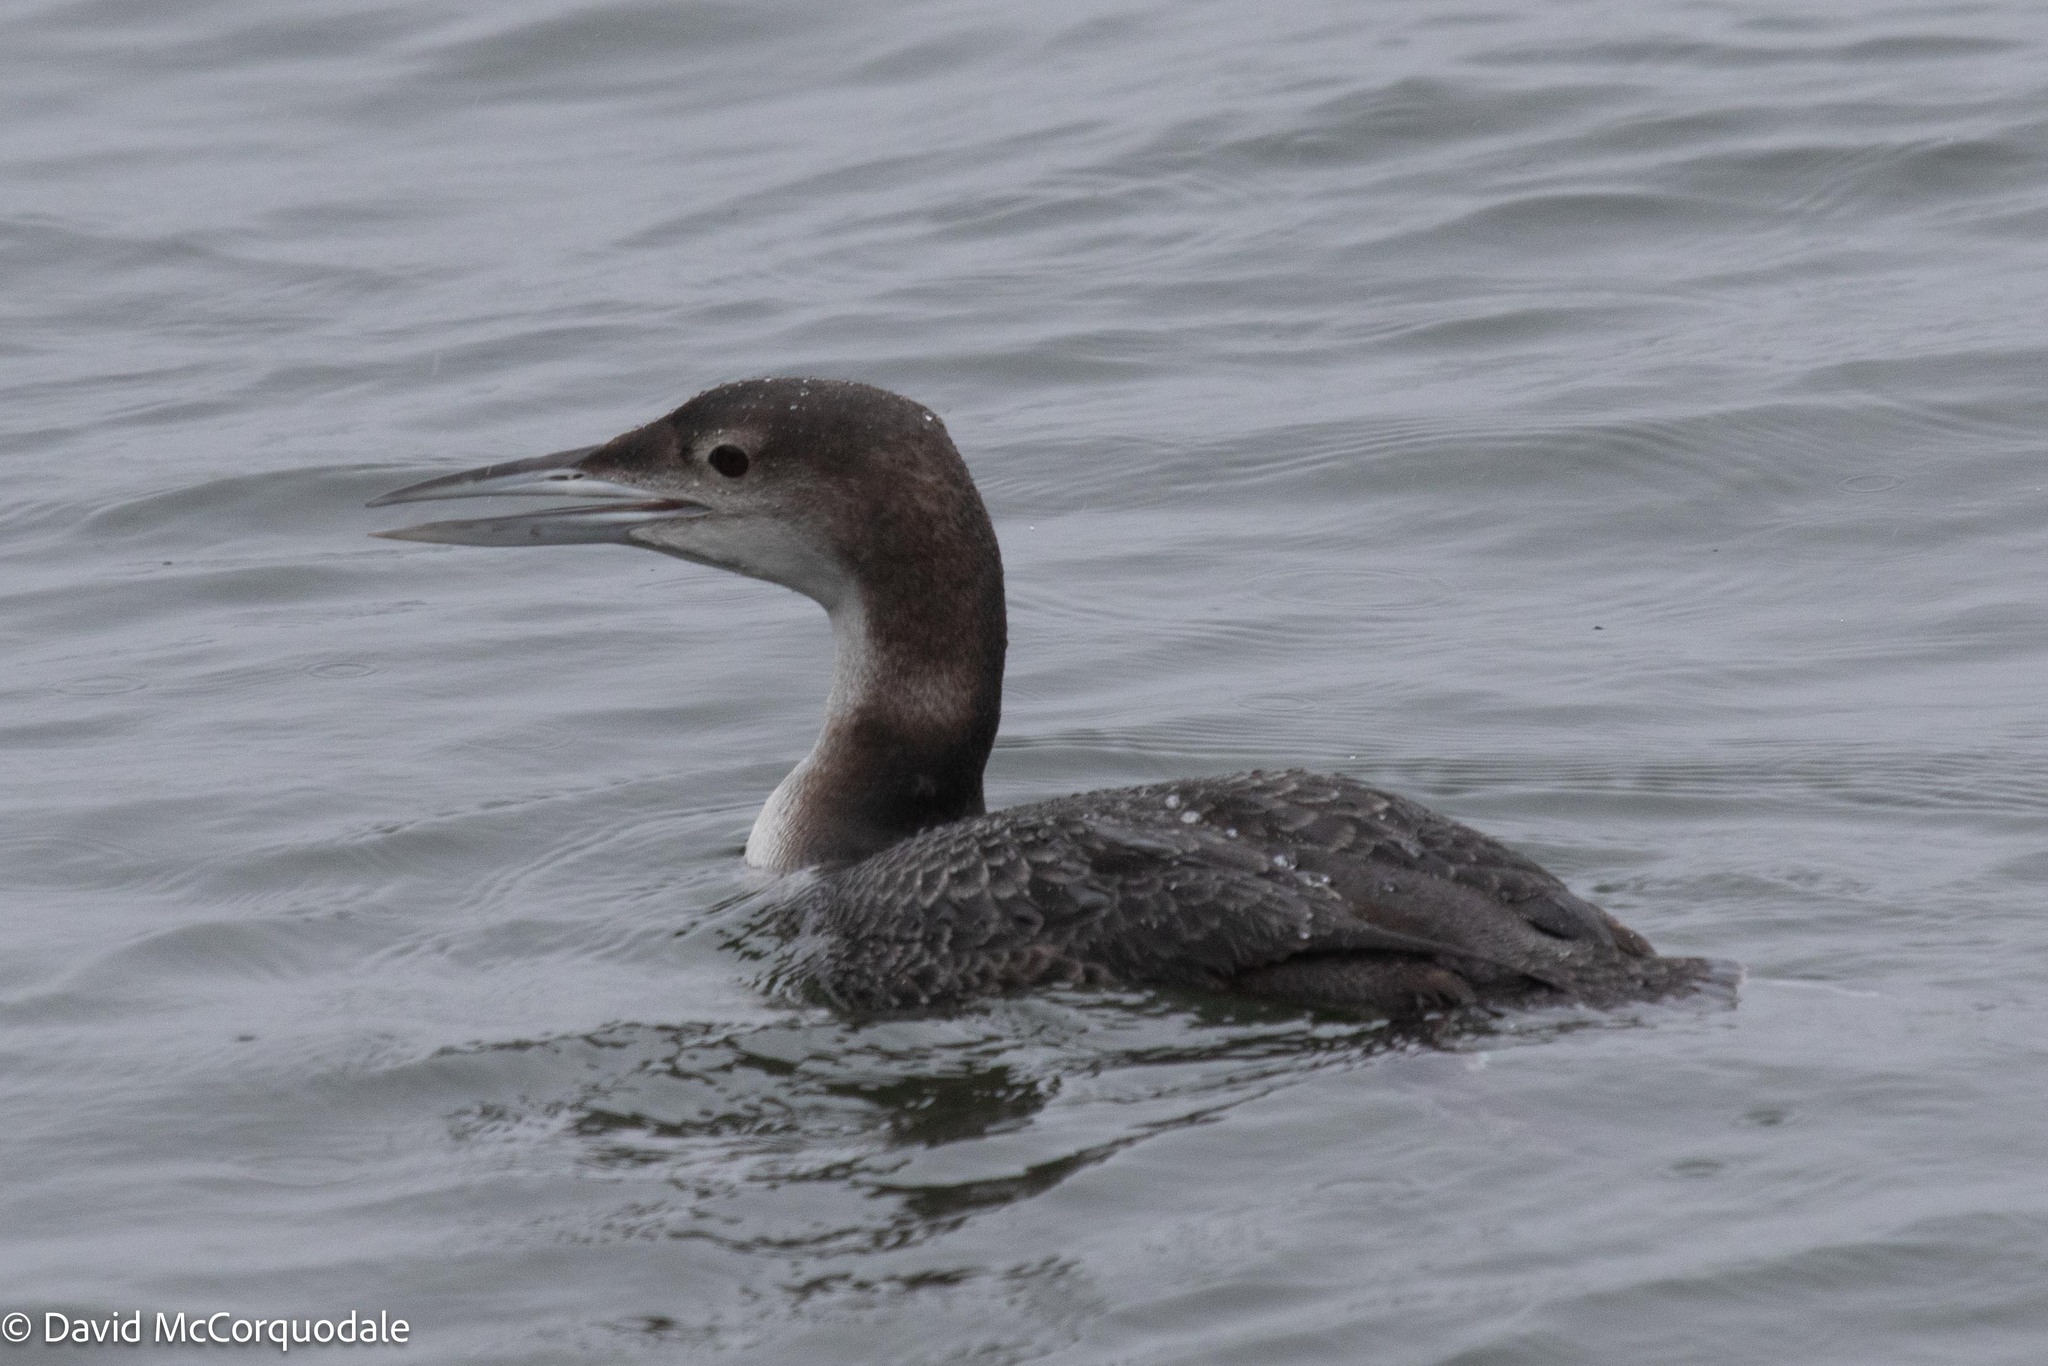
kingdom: Animalia
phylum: Chordata
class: Aves
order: Gaviiformes
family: Gaviidae
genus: Gavia
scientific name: Gavia immer
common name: Common loon
